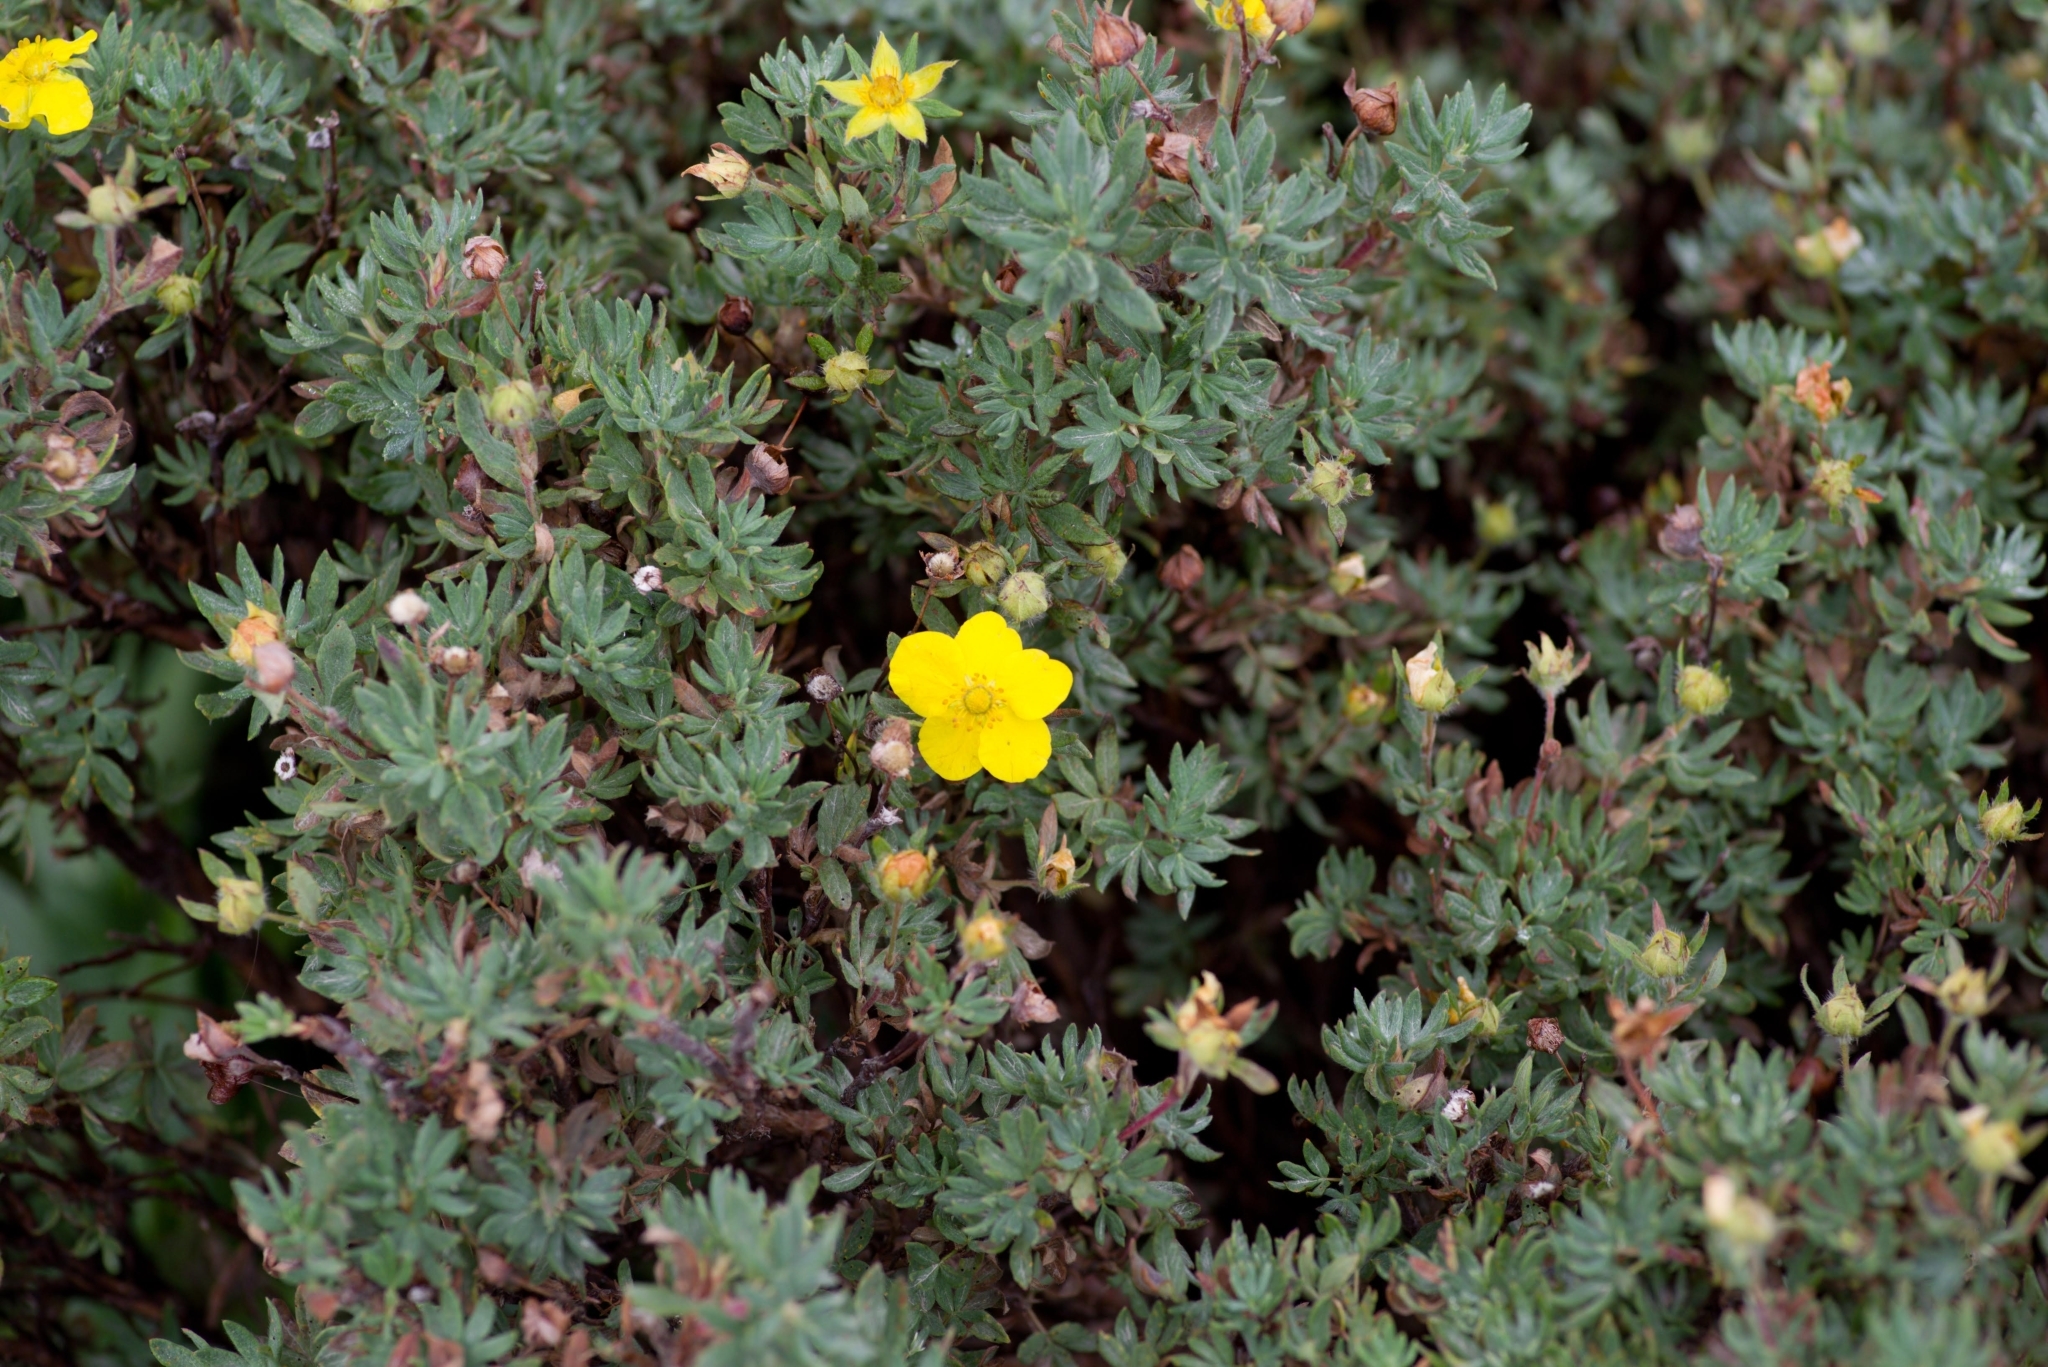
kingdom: Plantae
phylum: Tracheophyta
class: Magnoliopsida
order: Rosales
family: Rosaceae
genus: Dasiphora
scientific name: Dasiphora fruticosa
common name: Shrubby cinquefoil
